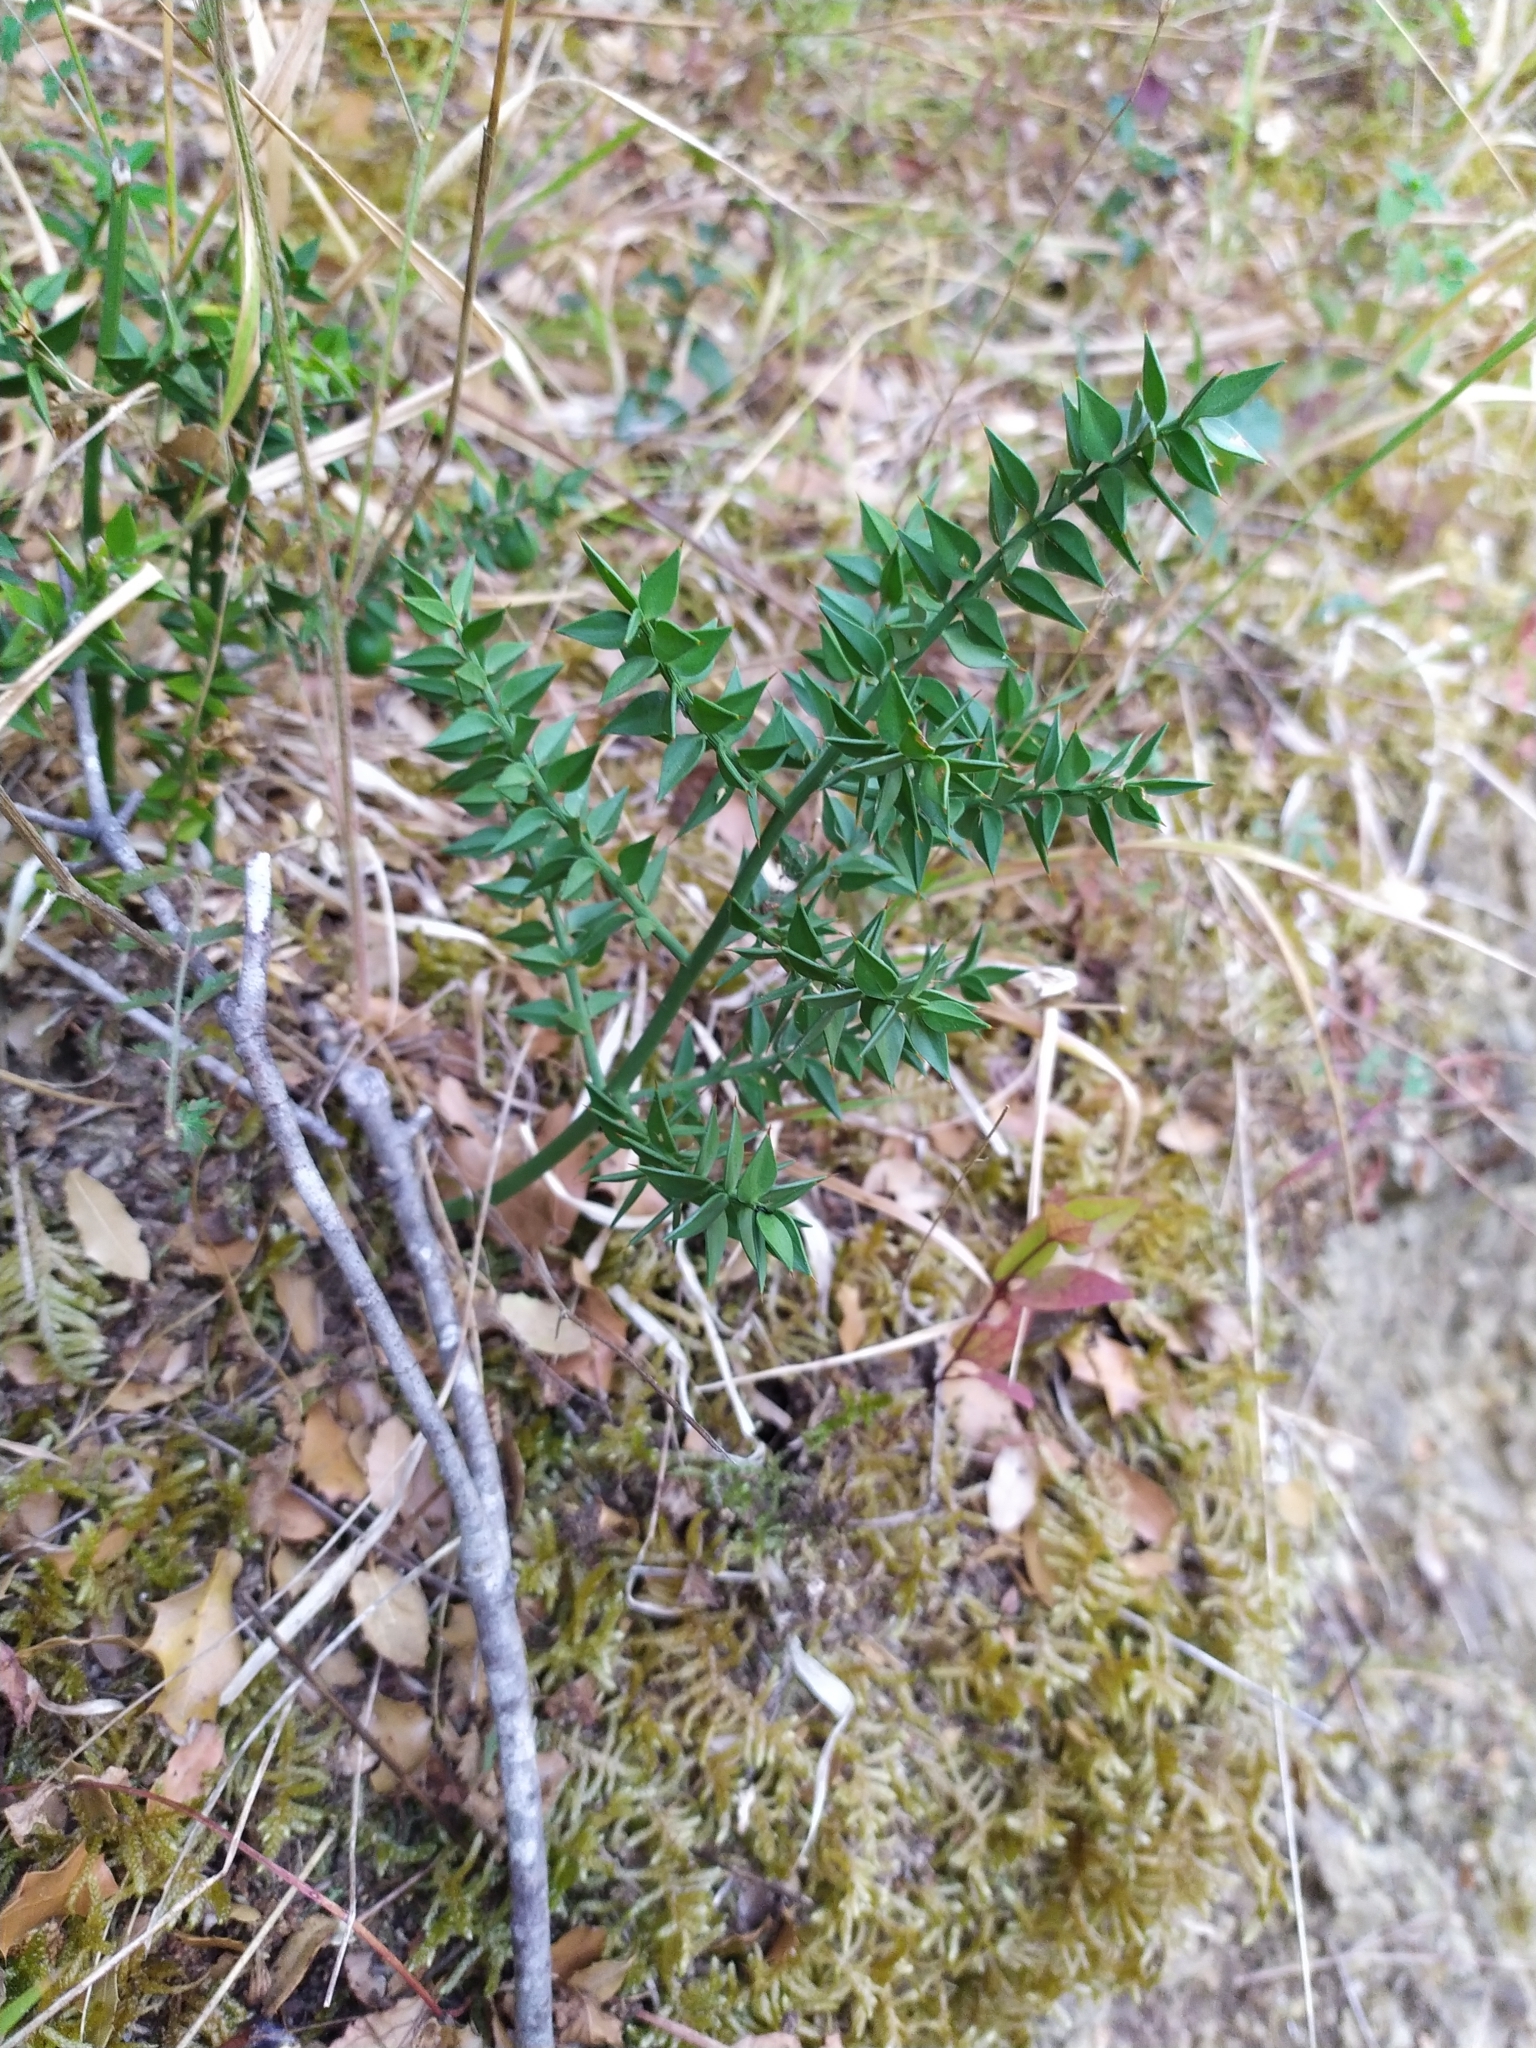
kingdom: Plantae
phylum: Tracheophyta
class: Liliopsida
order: Asparagales
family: Asparagaceae
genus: Ruscus
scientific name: Ruscus aculeatus
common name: Butcher's-broom
